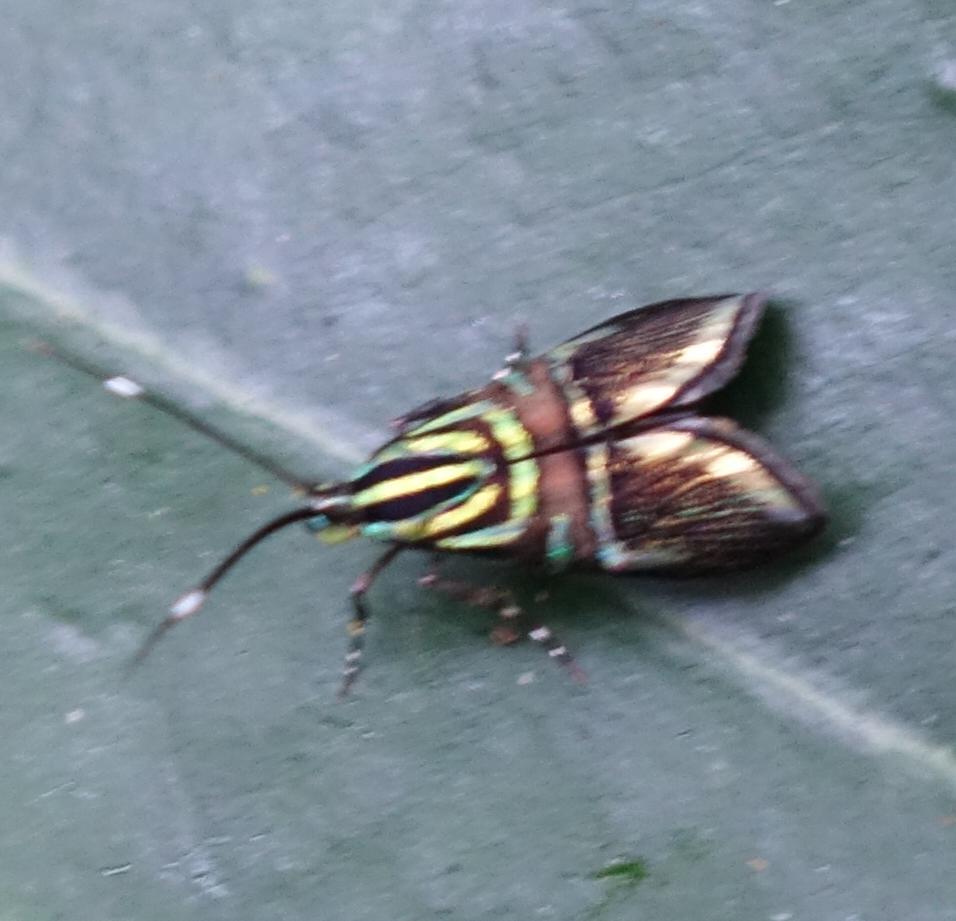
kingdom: Animalia
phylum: Arthropoda
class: Insecta
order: Lepidoptera
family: Choreutidae
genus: Saptha
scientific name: Saptha divitiosa
